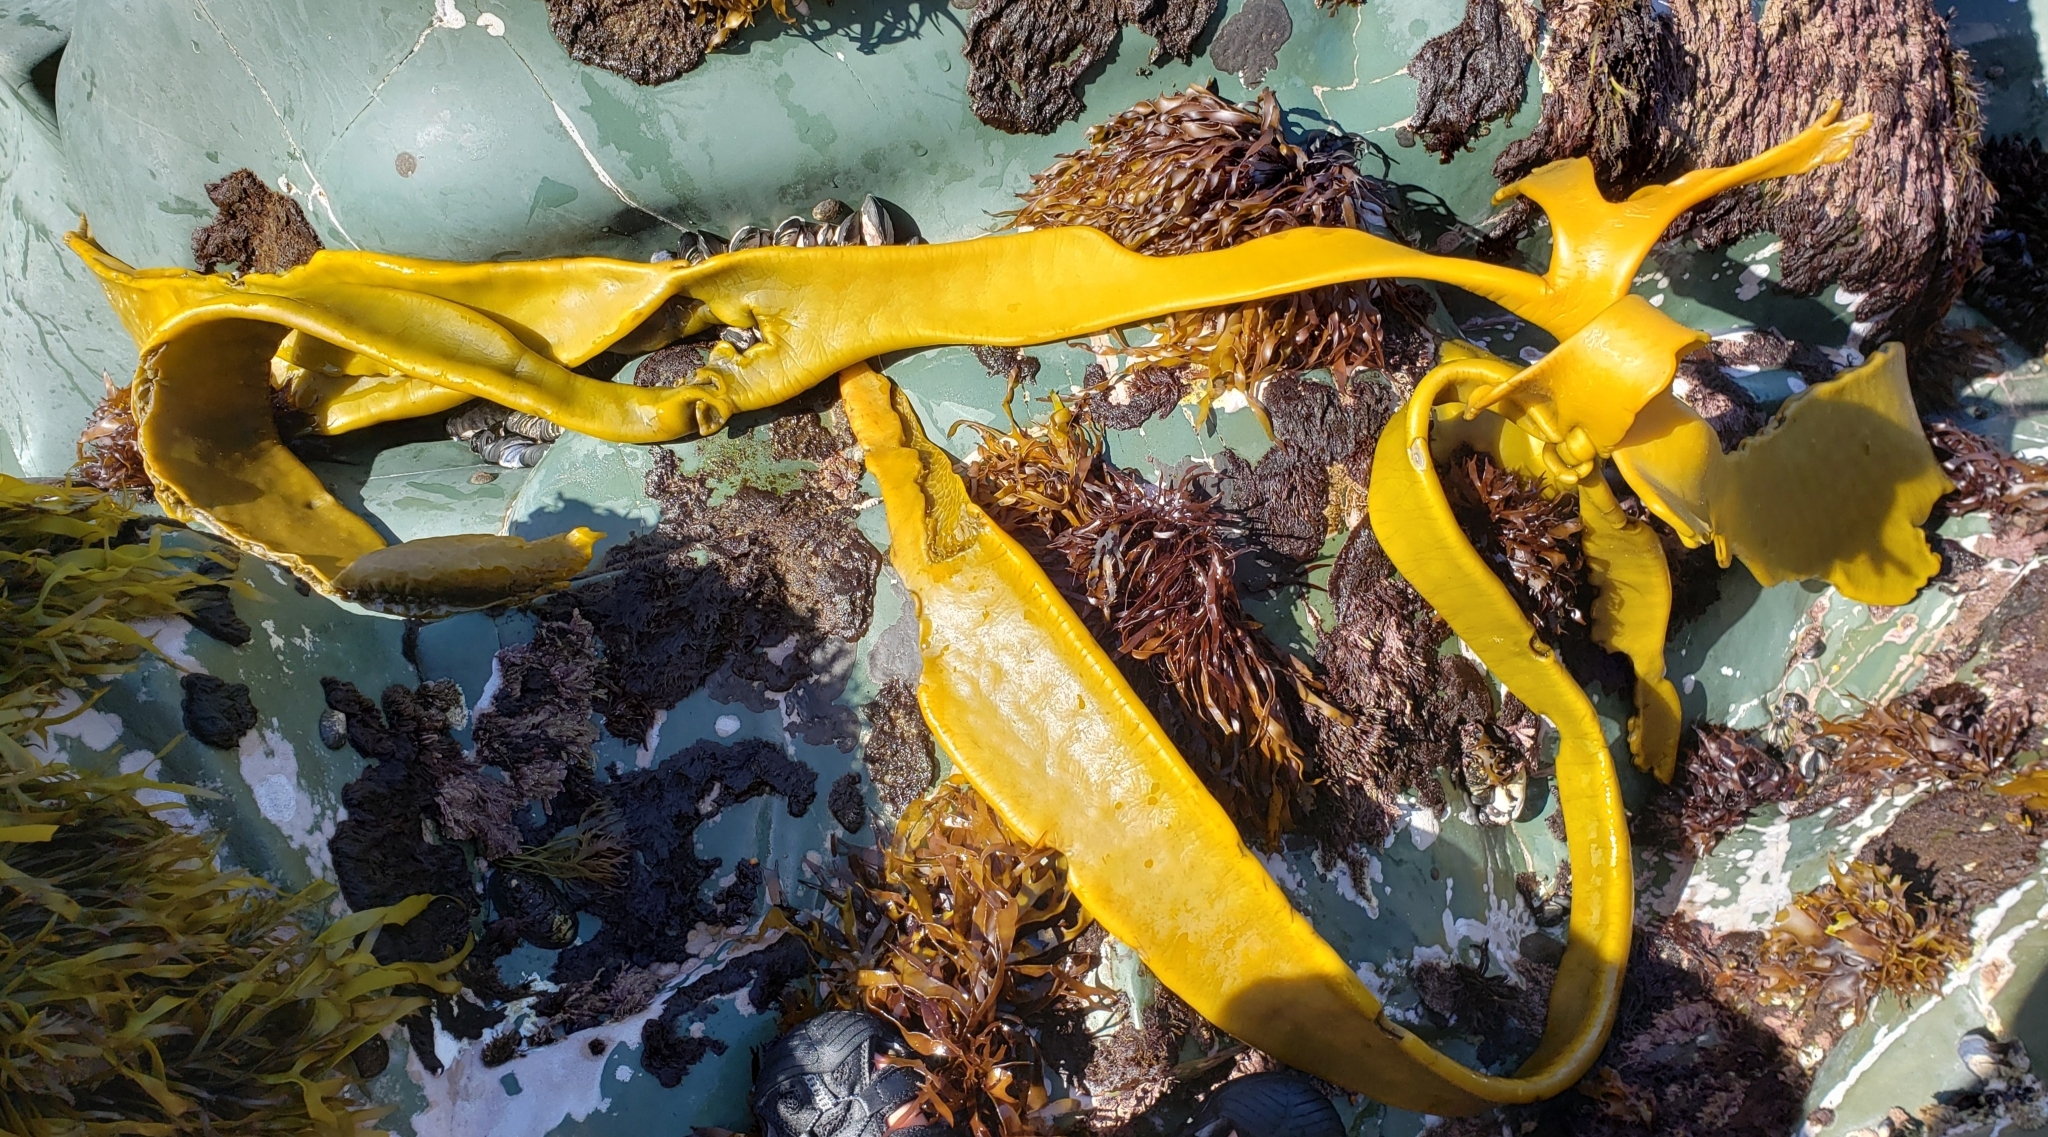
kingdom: Chromista
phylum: Ochrophyta
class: Phaeophyceae
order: Fucales
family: Durvillaeaceae
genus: Durvillaea
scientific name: Durvillaea antarctica
